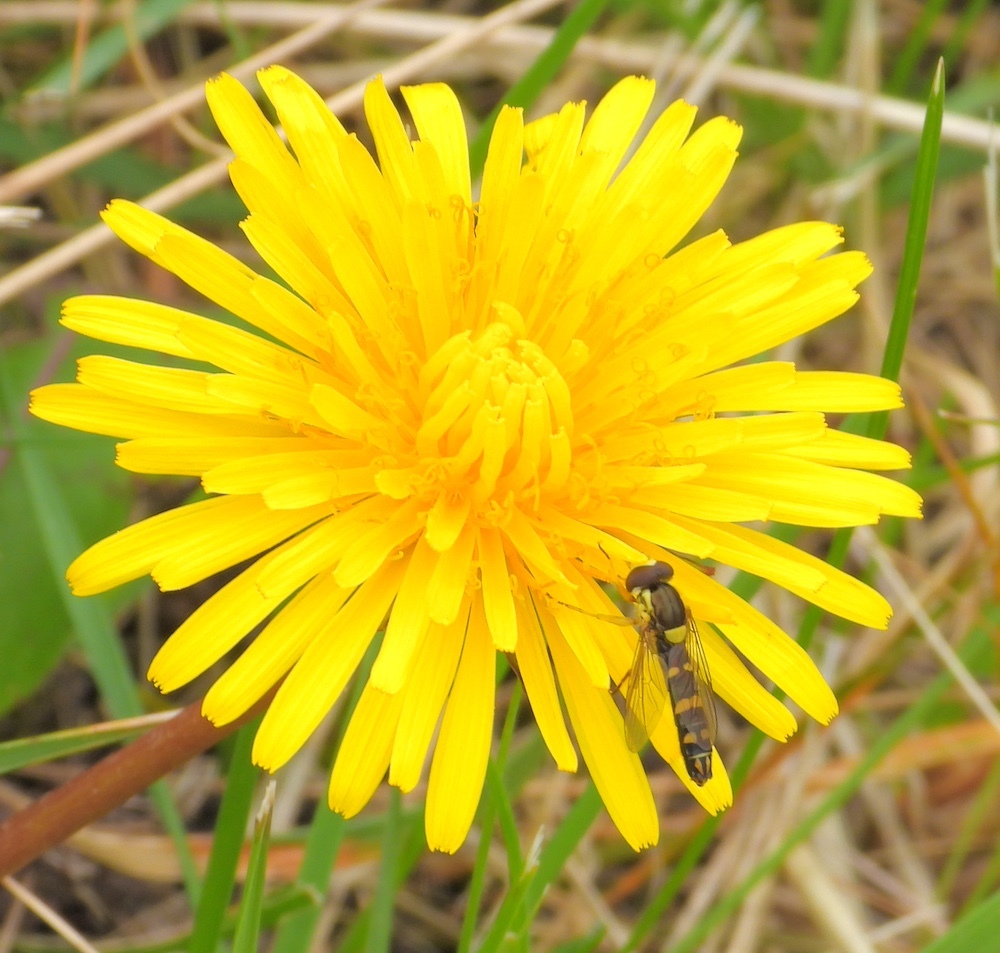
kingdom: Animalia
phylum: Arthropoda
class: Insecta
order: Diptera
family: Syrphidae
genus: Sphaerophoria
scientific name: Sphaerophoria scripta
